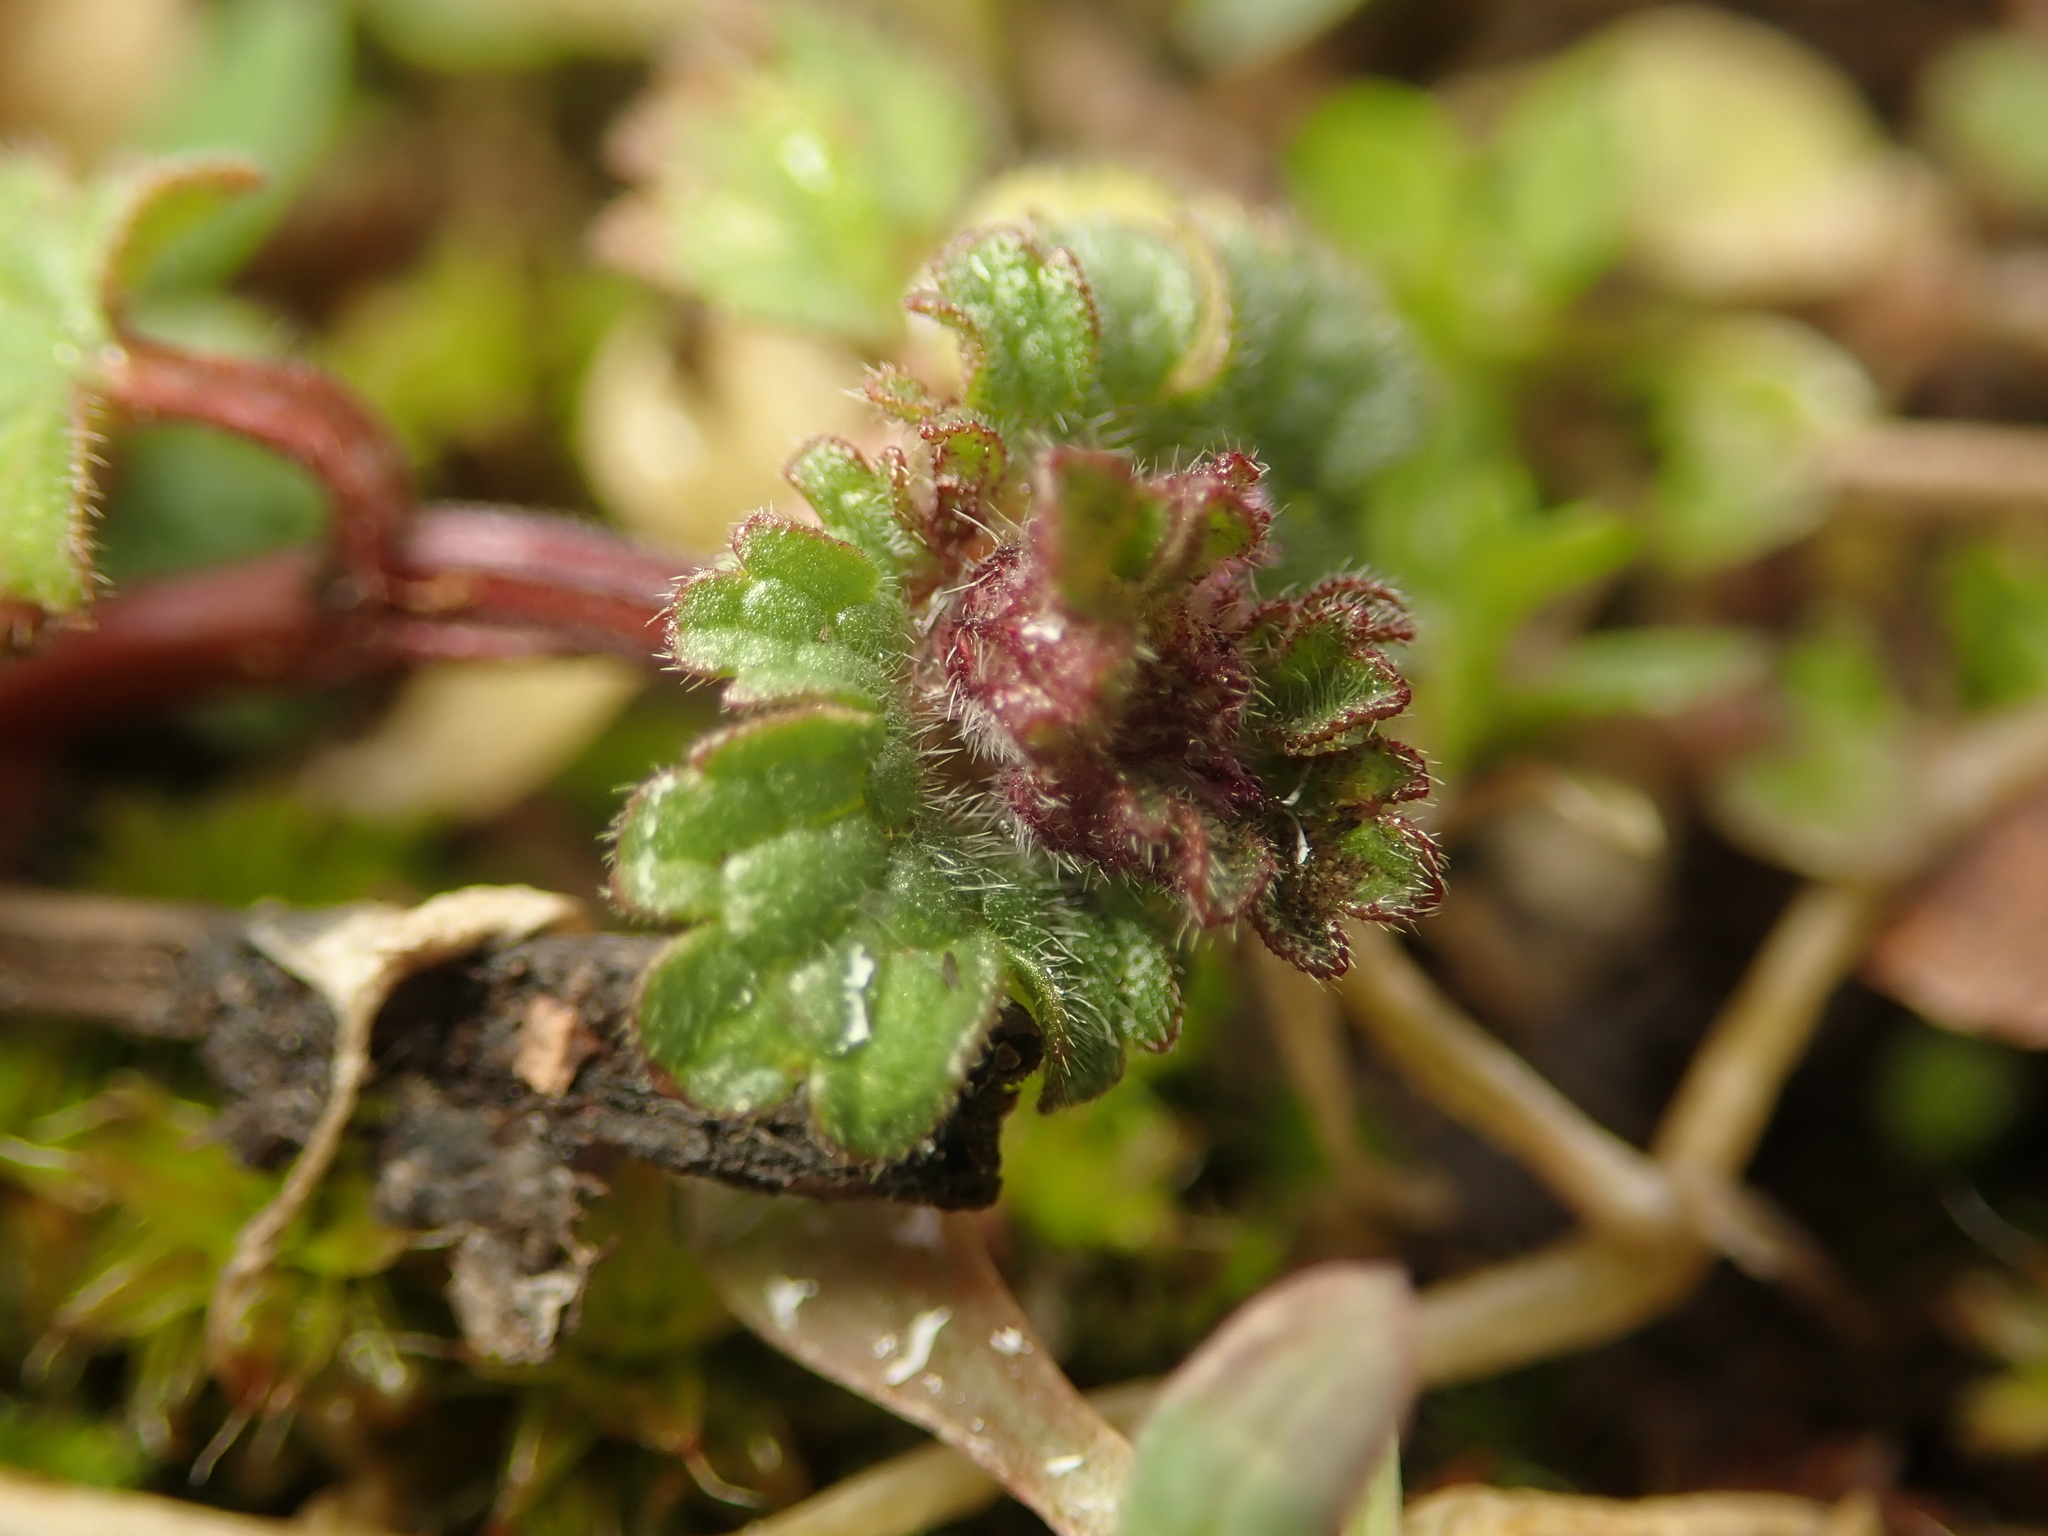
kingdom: Plantae
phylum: Tracheophyta
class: Magnoliopsida
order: Lamiales
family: Lamiaceae
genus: Lamium
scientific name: Lamium amplexicaule
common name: Henbit dead-nettle
